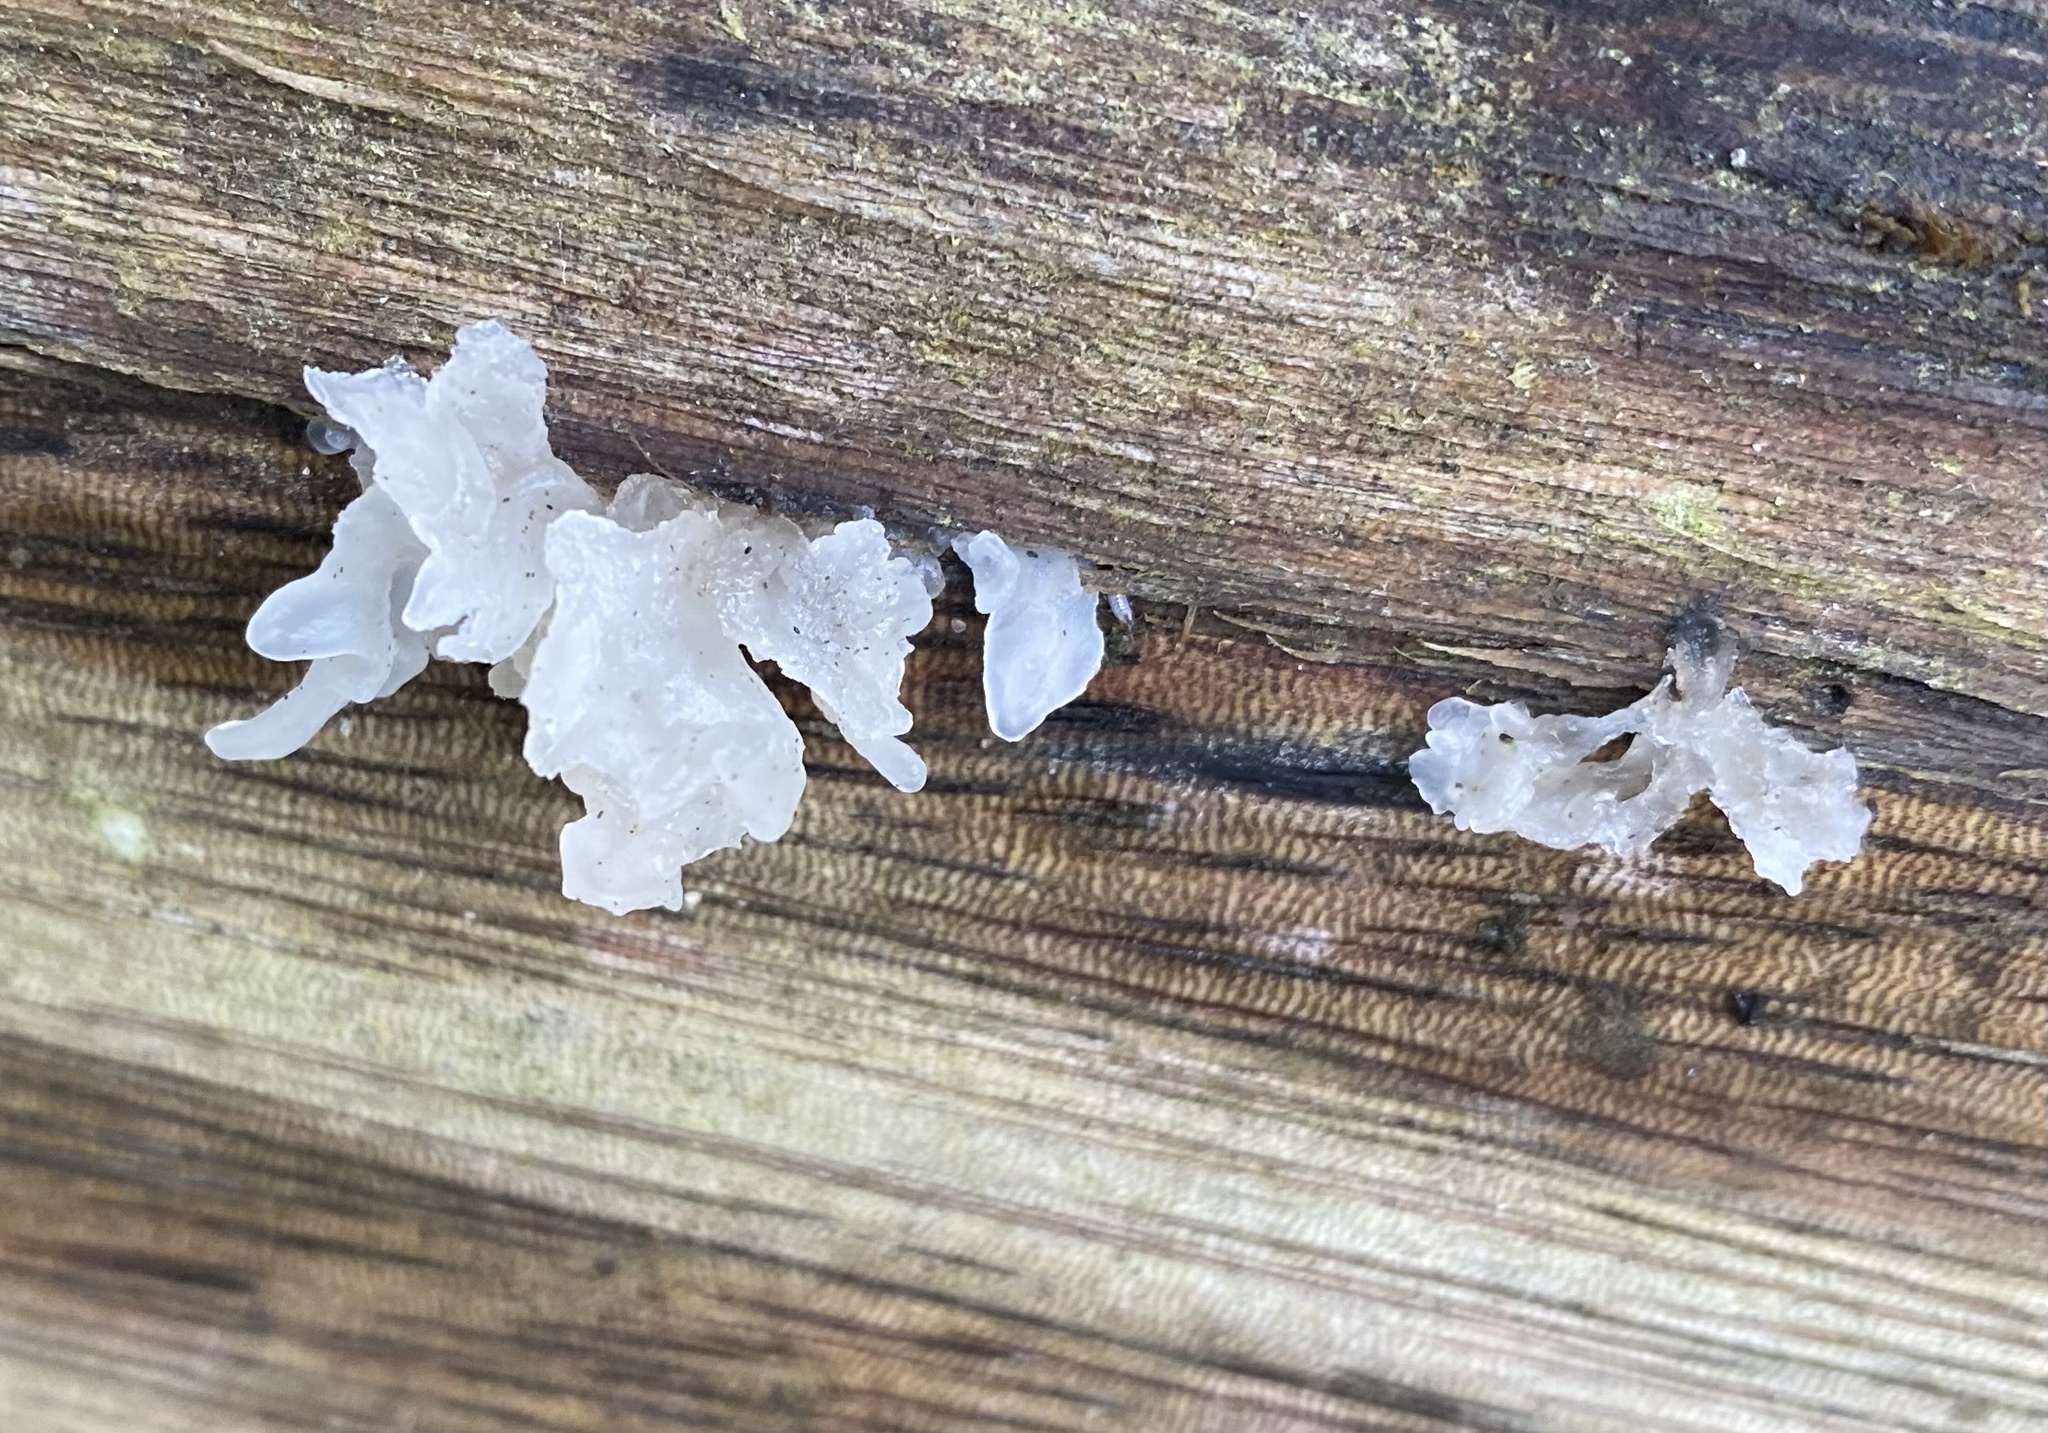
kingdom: Fungi
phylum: Basidiomycota
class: Tremellomycetes
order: Tremellales
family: Tremellaceae
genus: Tremella
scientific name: Tremella fuciformis
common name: Snow fungus
